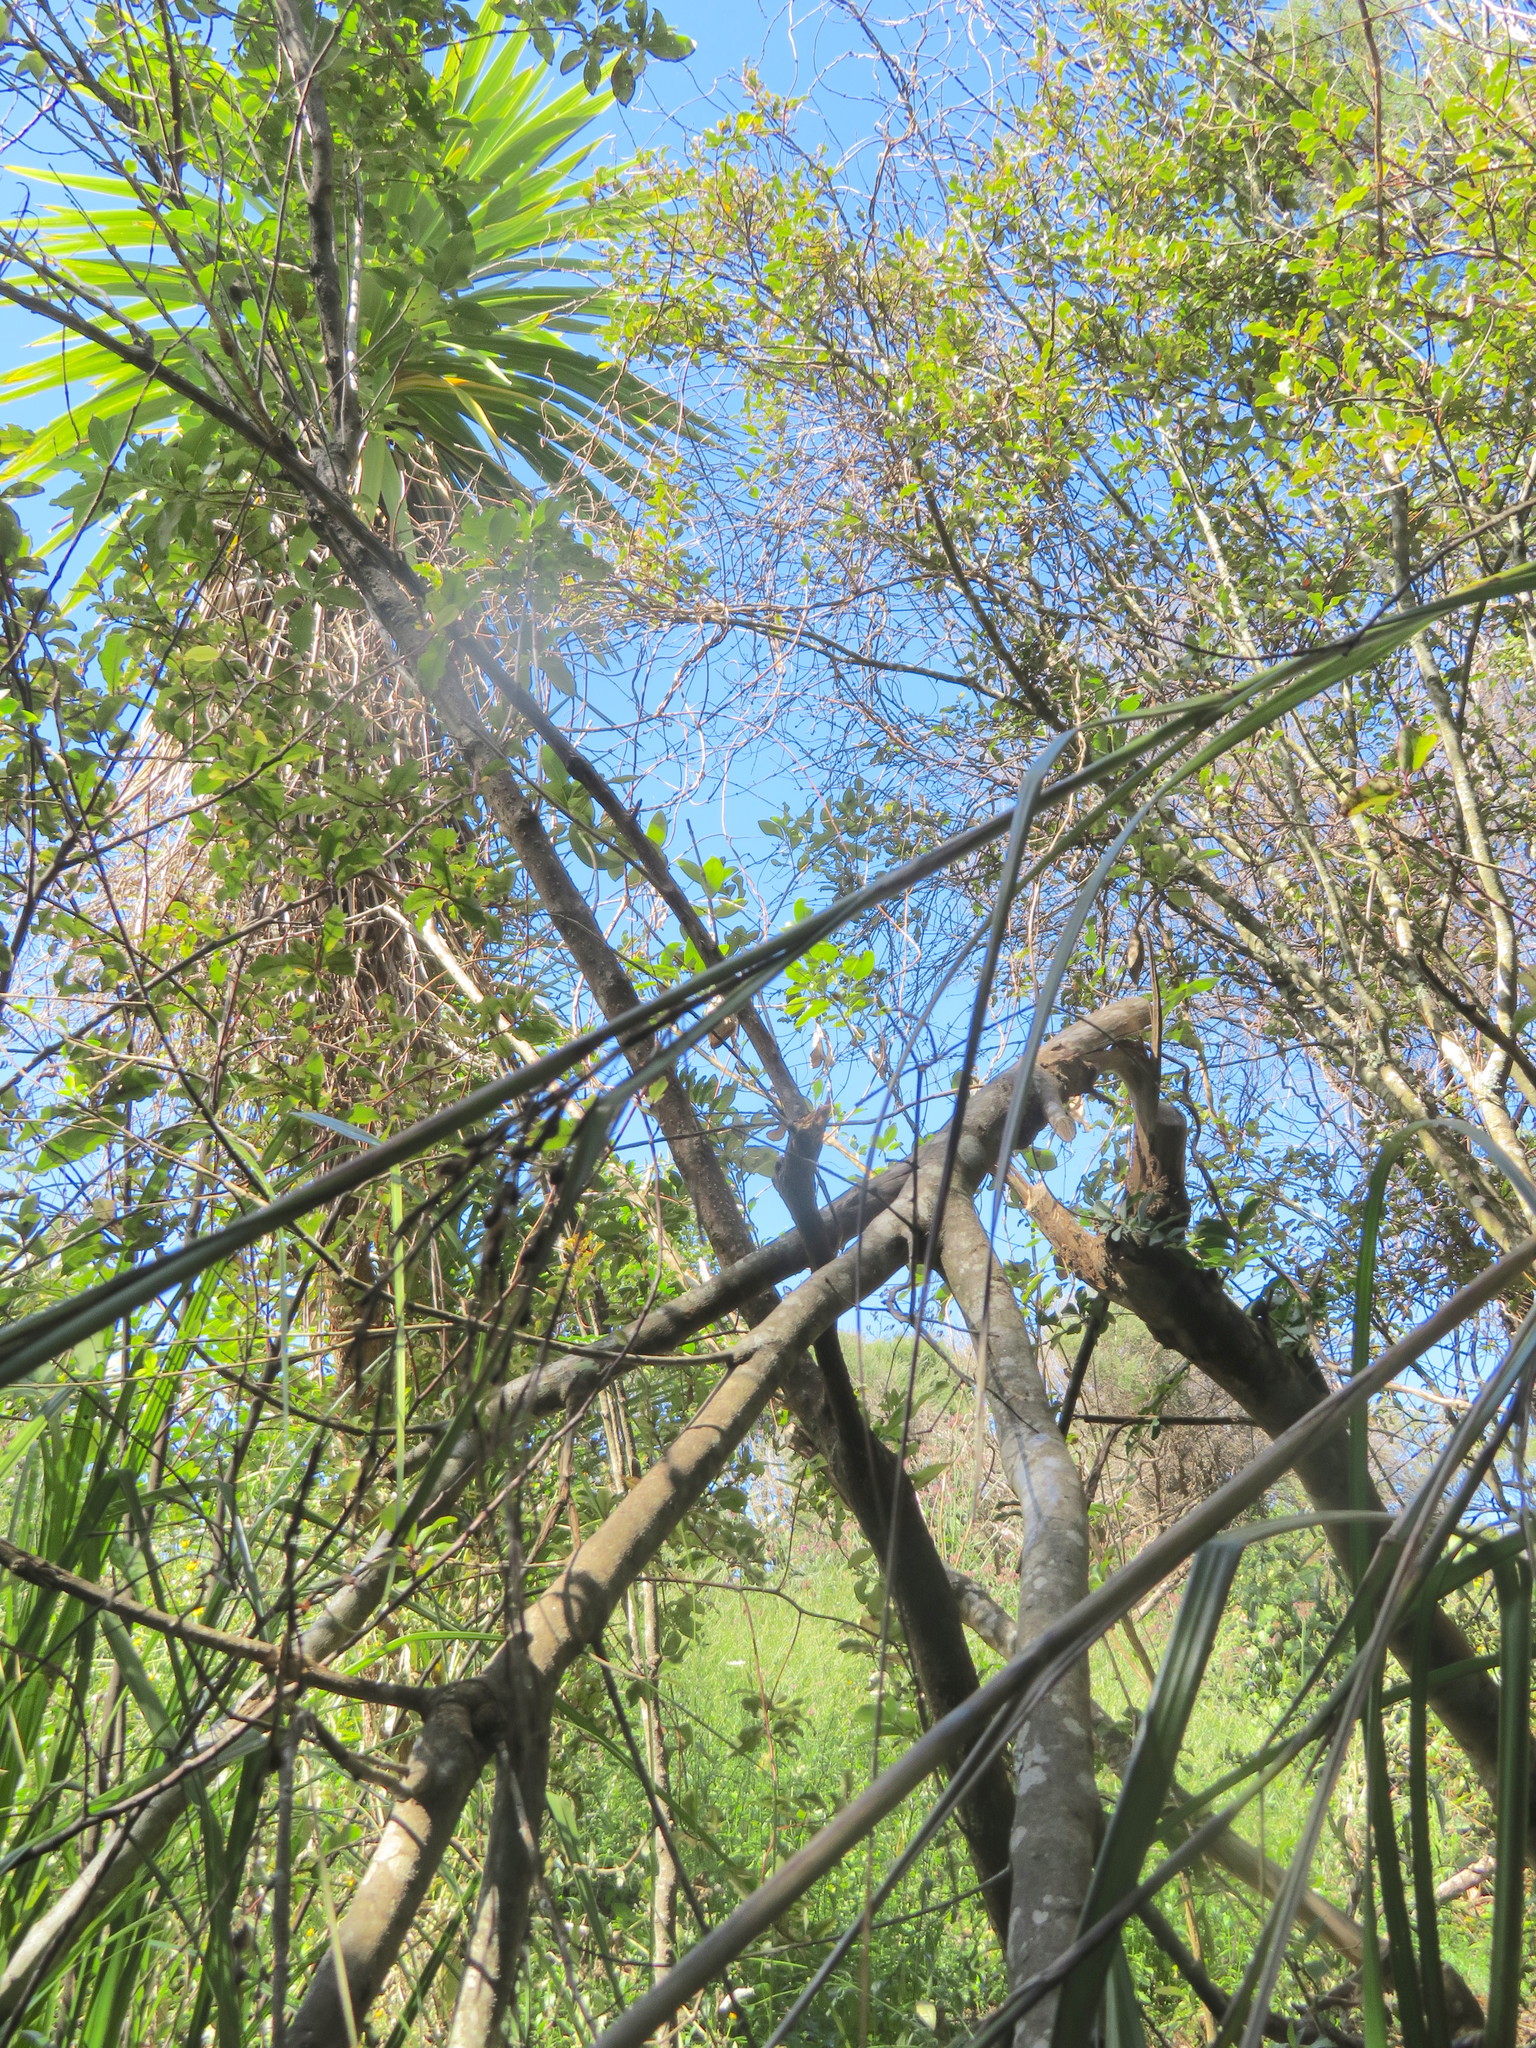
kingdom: Plantae
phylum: Tracheophyta
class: Liliopsida
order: Asparagales
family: Asparagaceae
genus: Cordyline
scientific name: Cordyline australis
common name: Cabbage-palm
